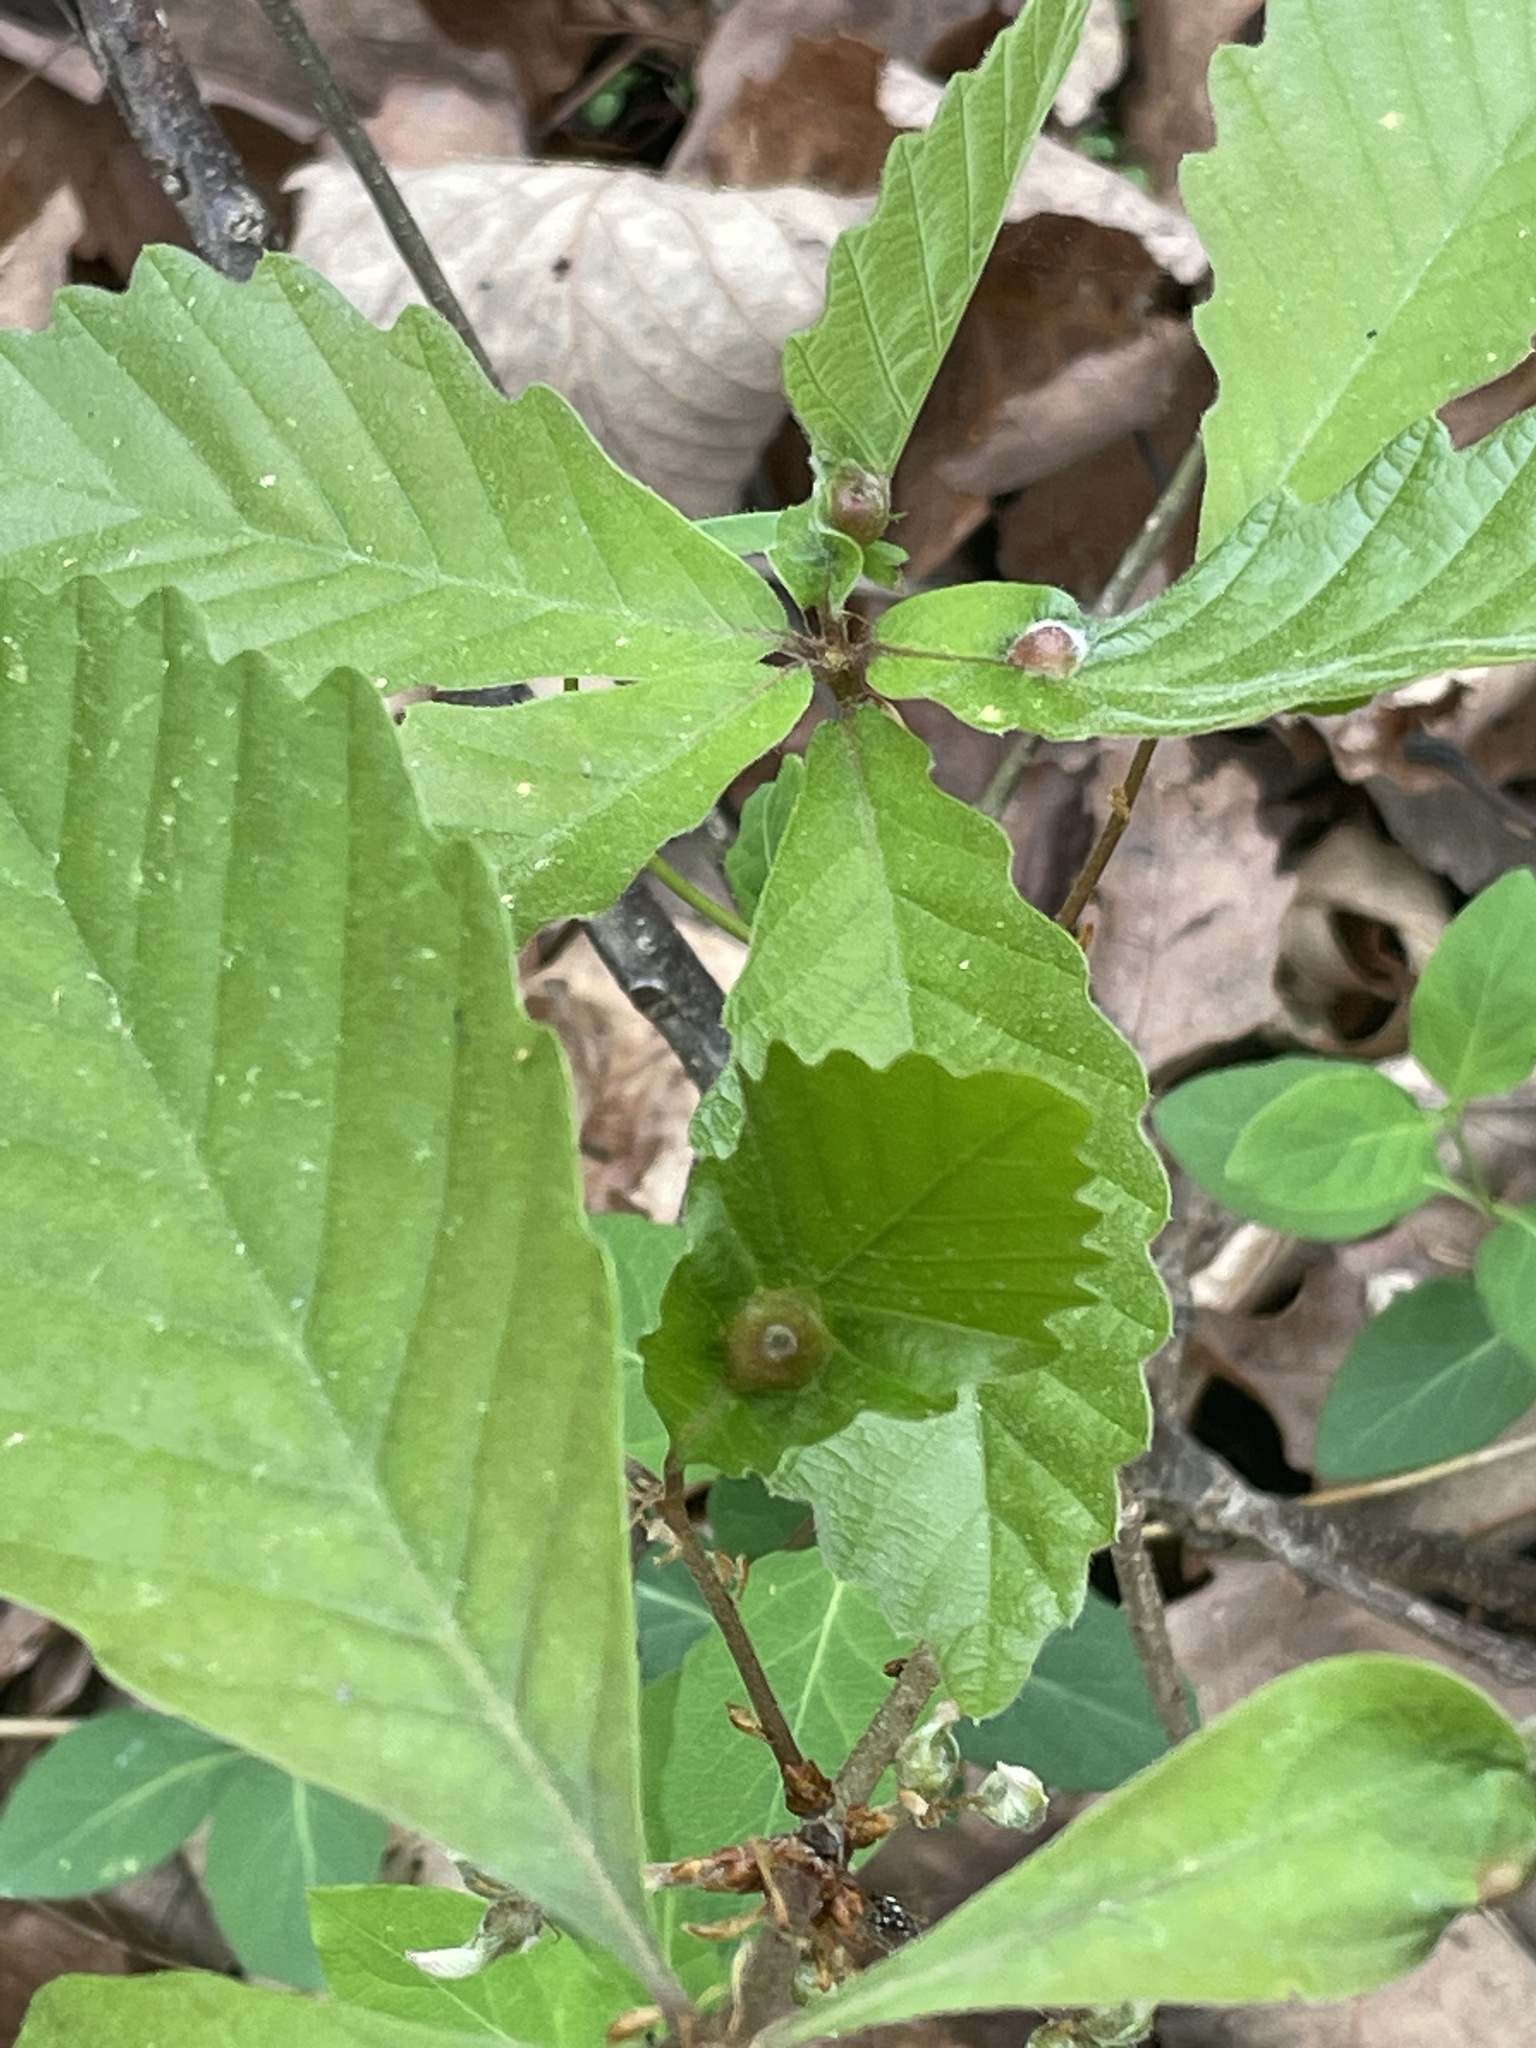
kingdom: Animalia
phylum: Arthropoda
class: Insecta
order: Hymenoptera
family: Cynipidae
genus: Andricus
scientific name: Andricus
